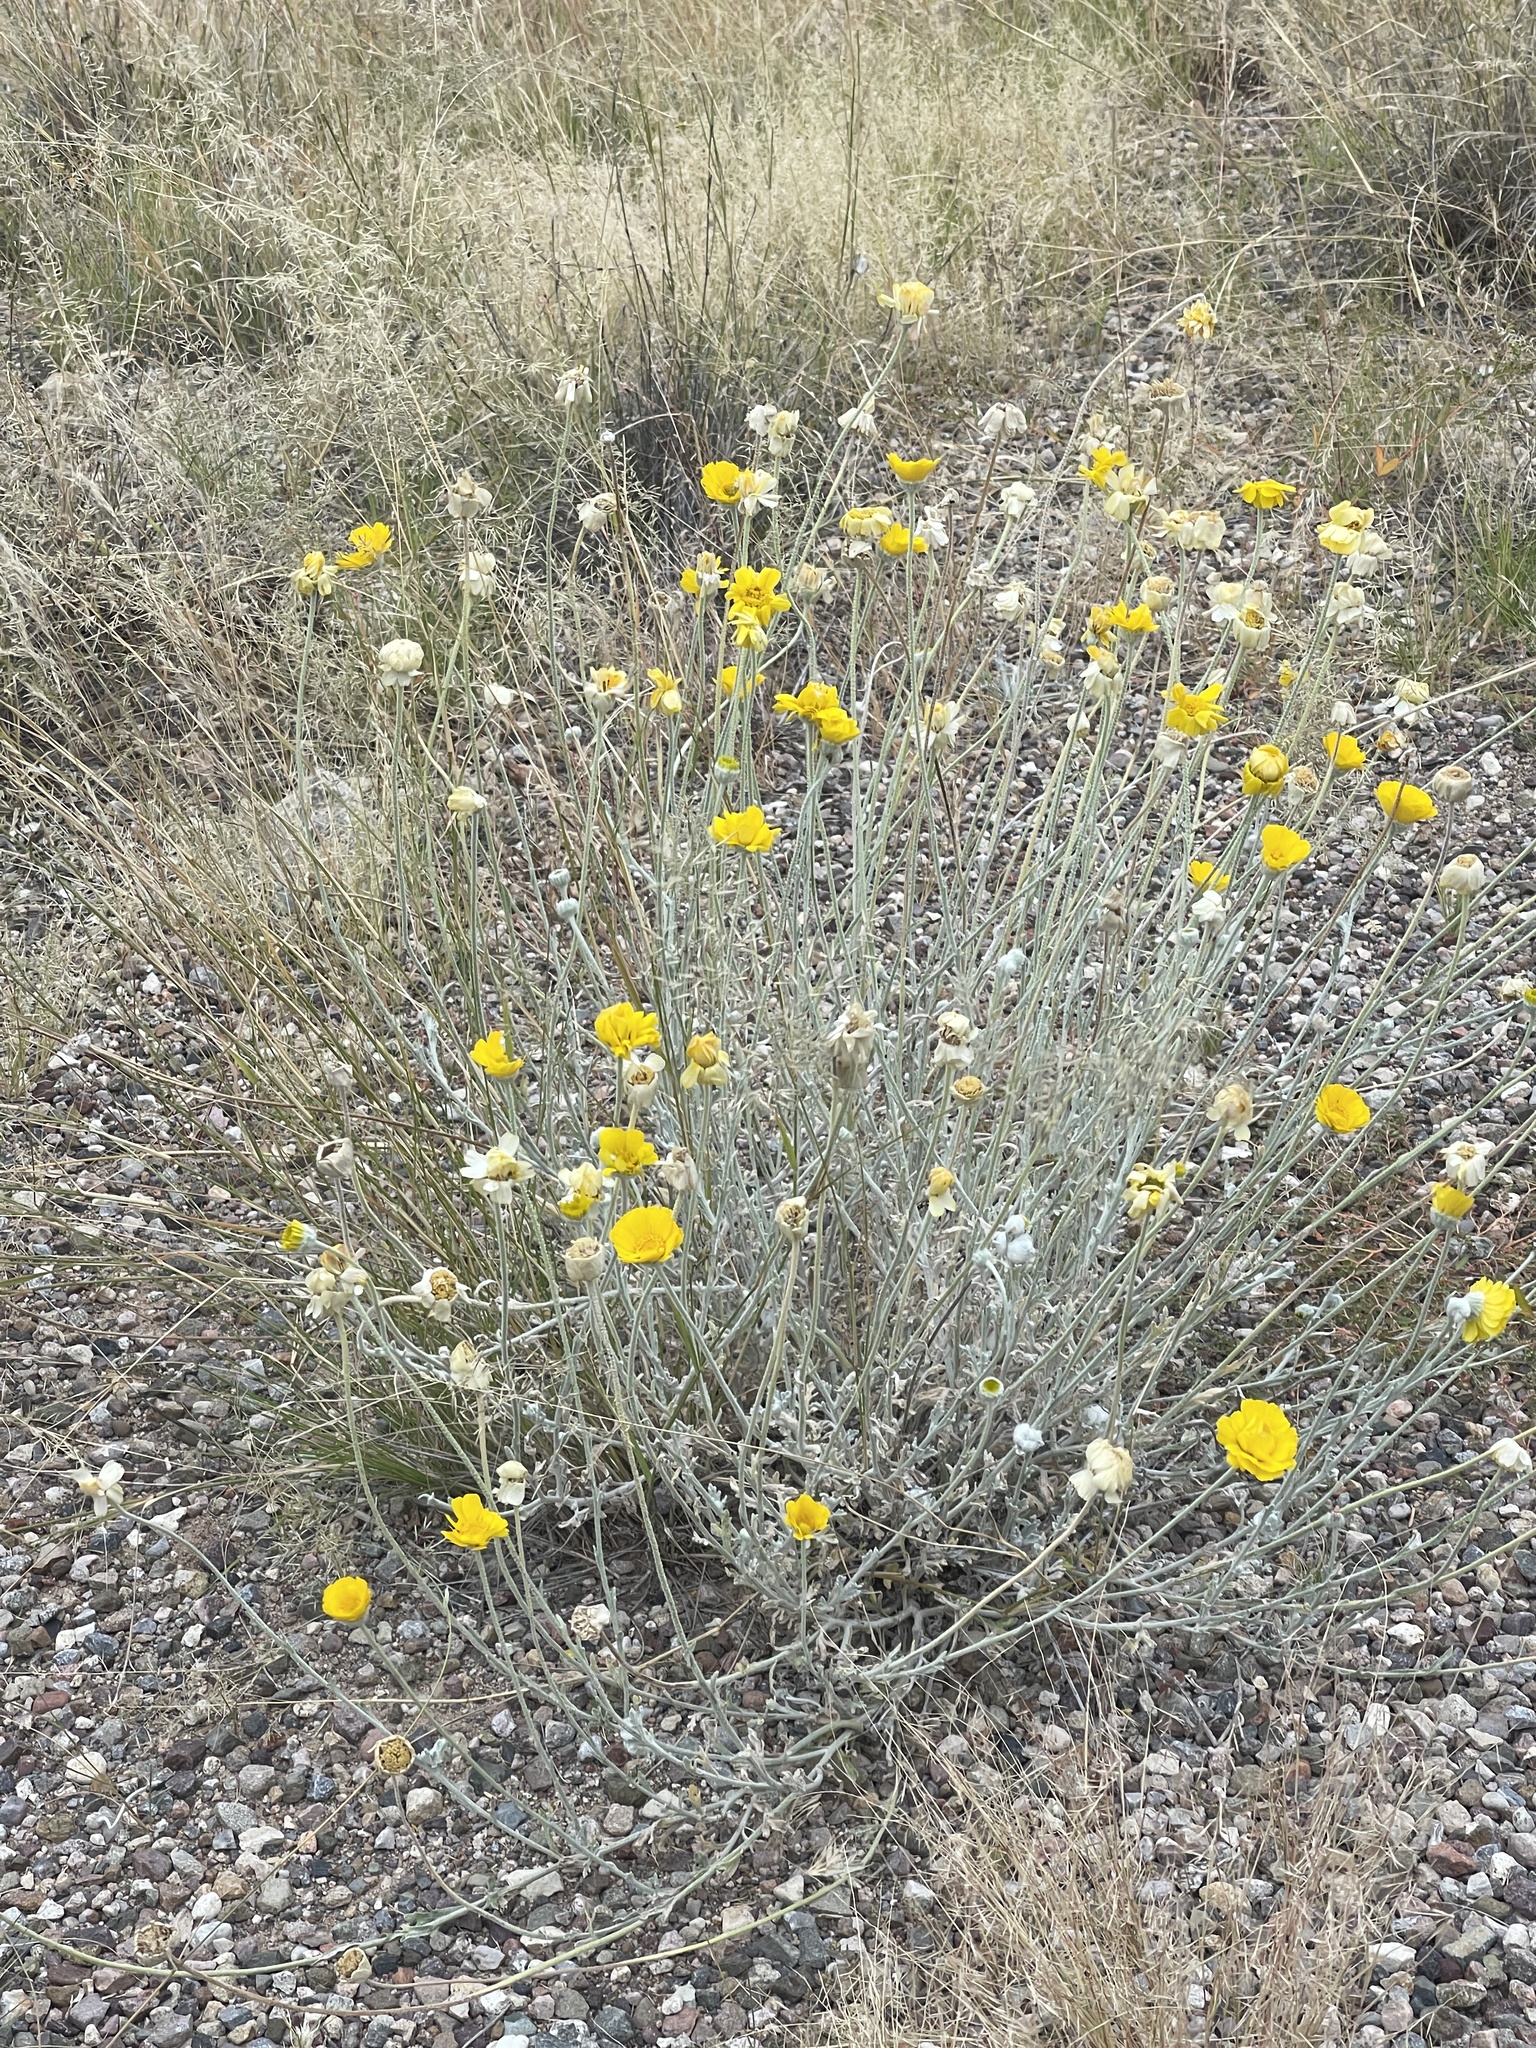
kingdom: Plantae
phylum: Tracheophyta
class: Magnoliopsida
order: Asterales
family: Asteraceae
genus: Baileya
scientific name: Baileya multiradiata
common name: Desert-marigold
